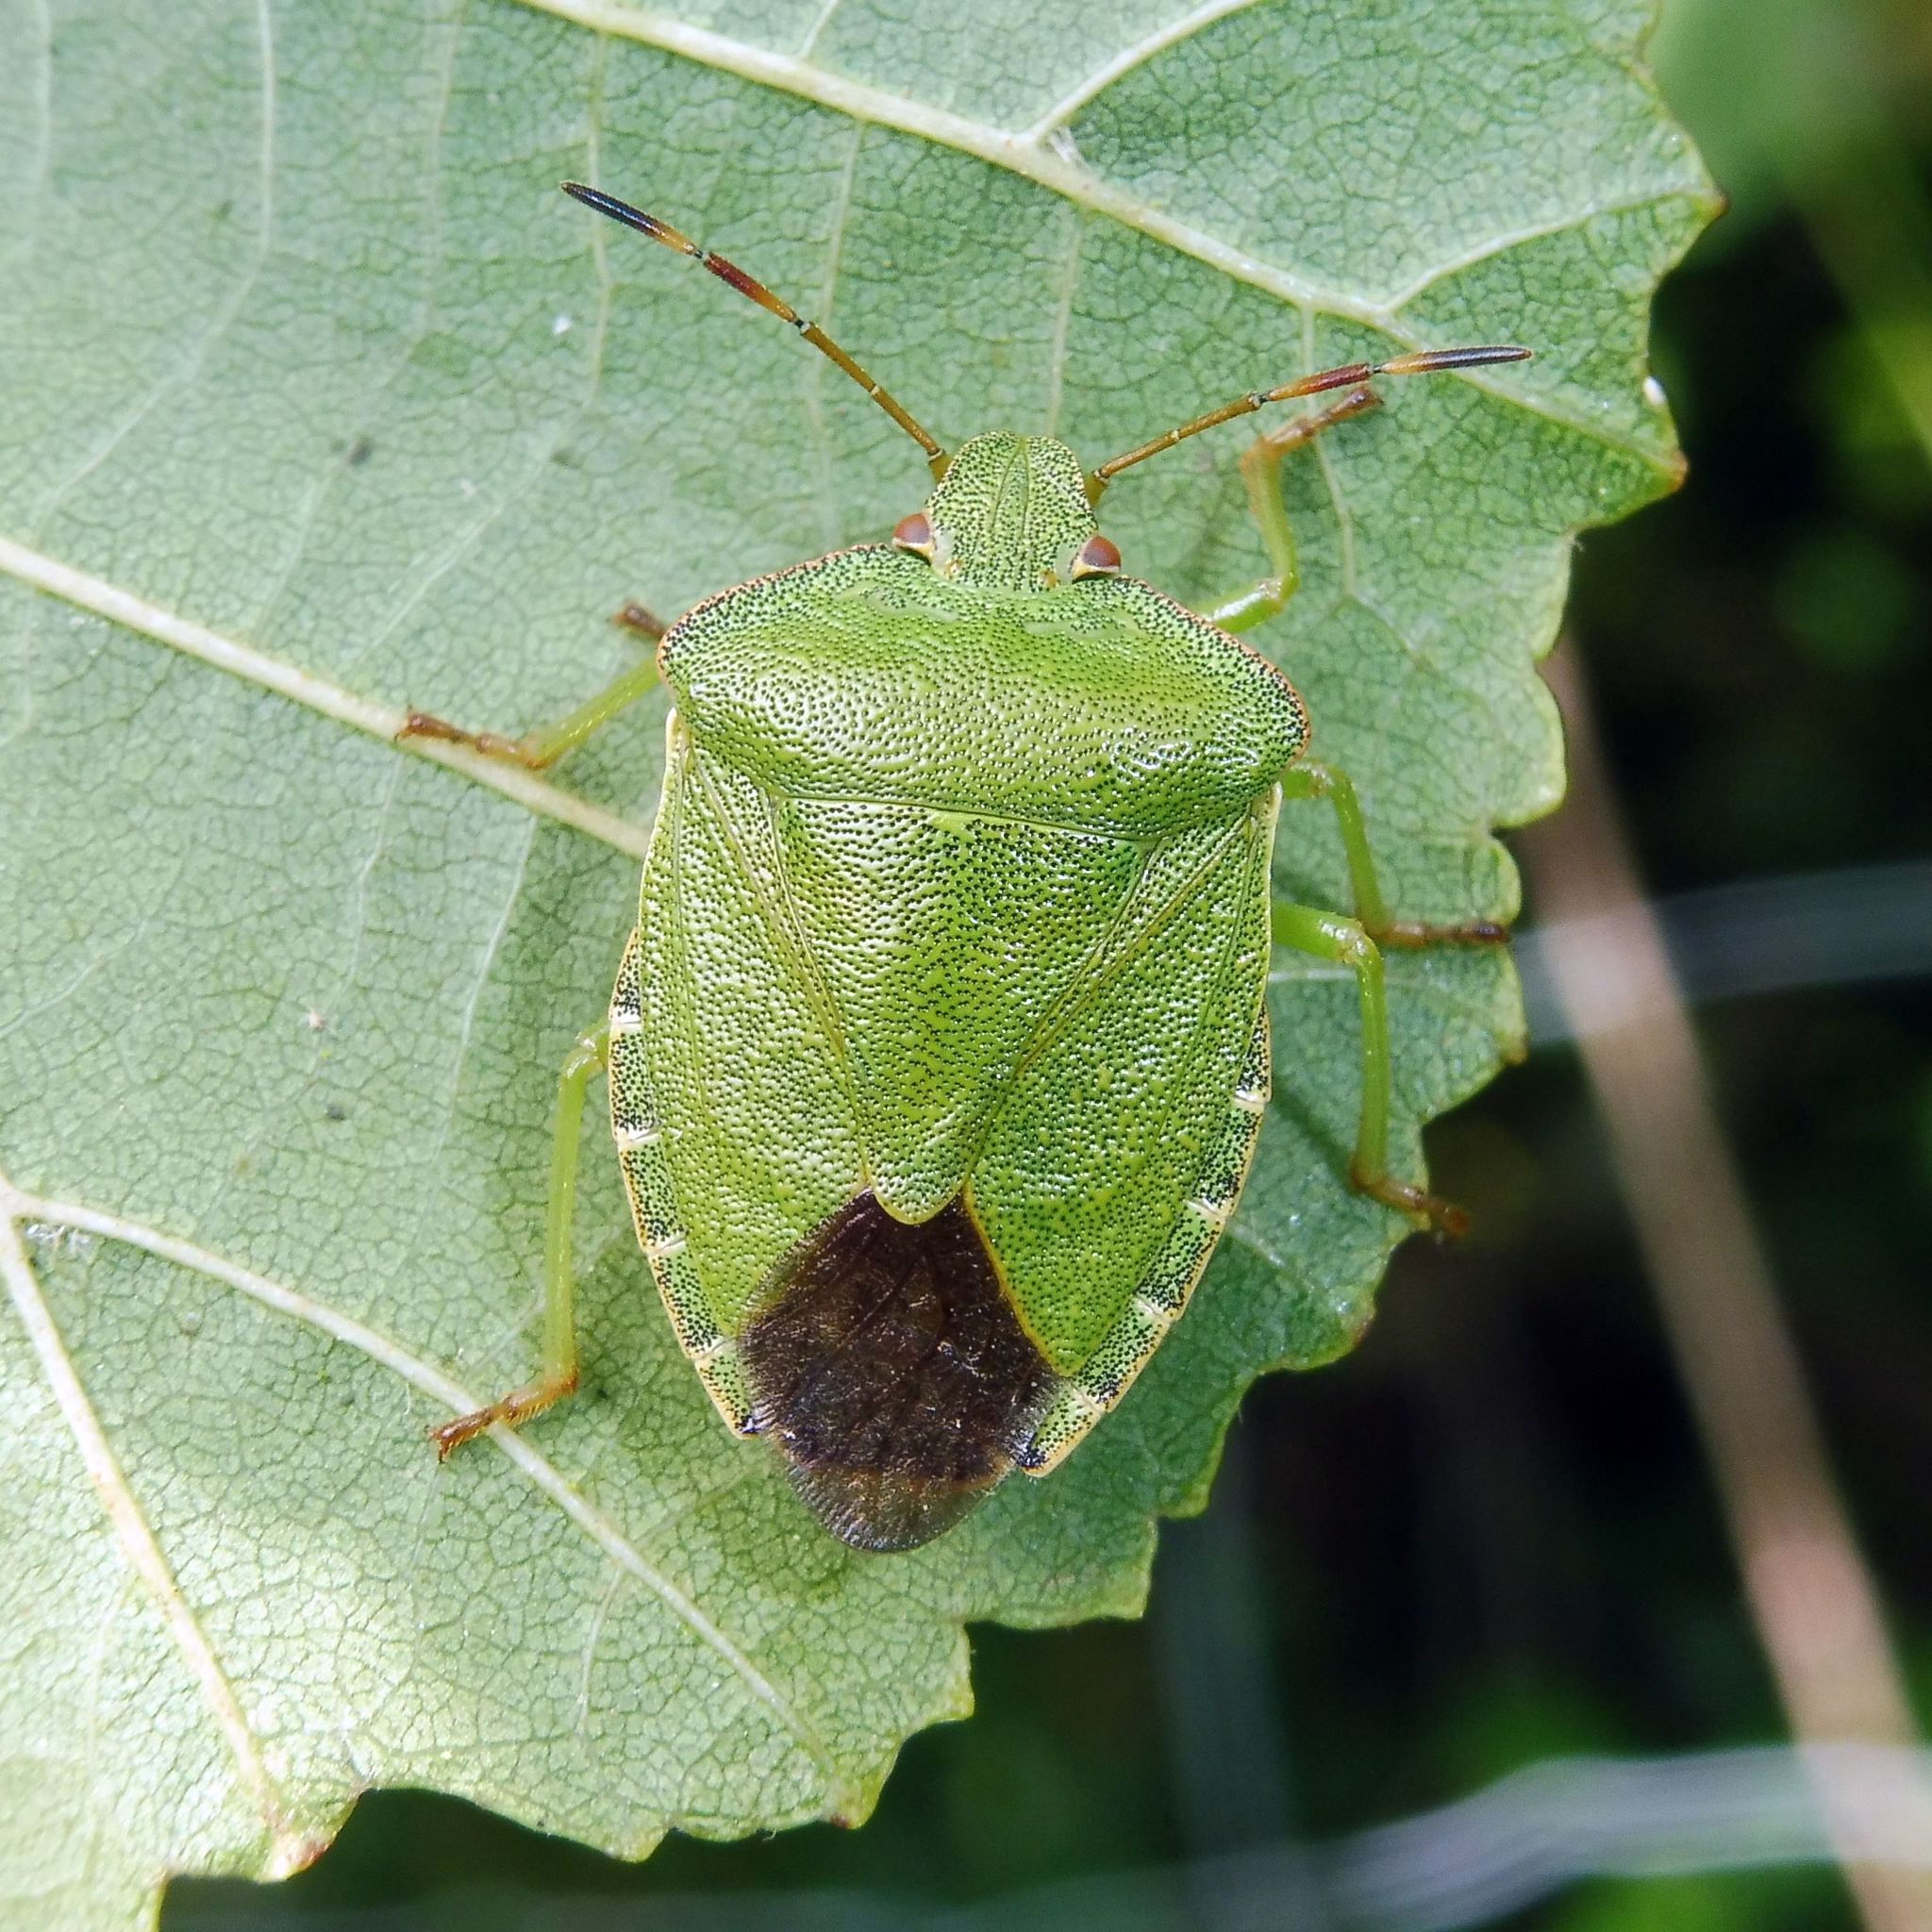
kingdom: Animalia
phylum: Arthropoda
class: Insecta
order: Hemiptera
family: Pentatomidae
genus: Palomena
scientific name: Palomena prasina
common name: Green shieldbug
